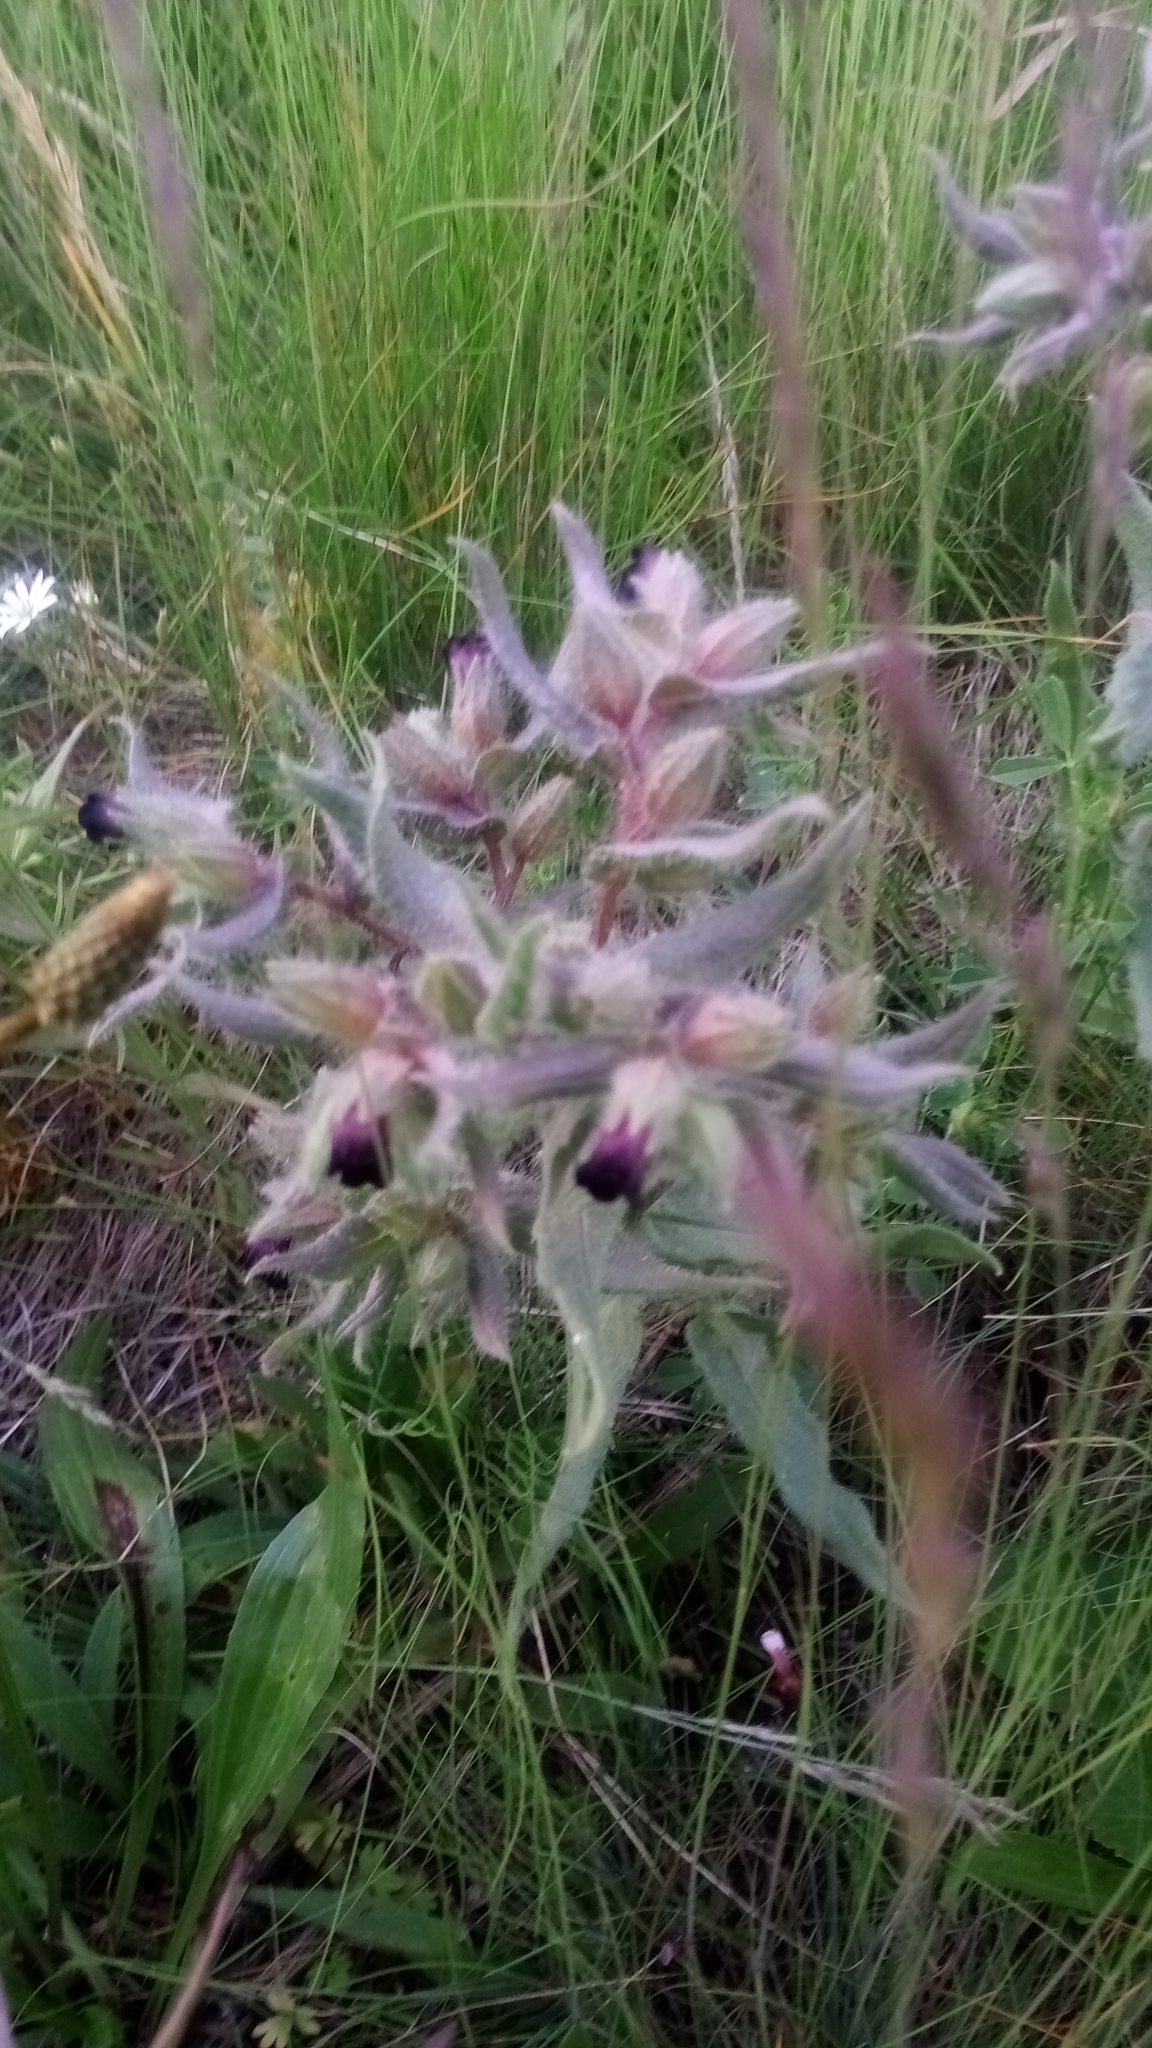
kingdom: Plantae
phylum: Tracheophyta
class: Magnoliopsida
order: Boraginales
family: Boraginaceae
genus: Nonea
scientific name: Nonea pulla
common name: Brown nonea
